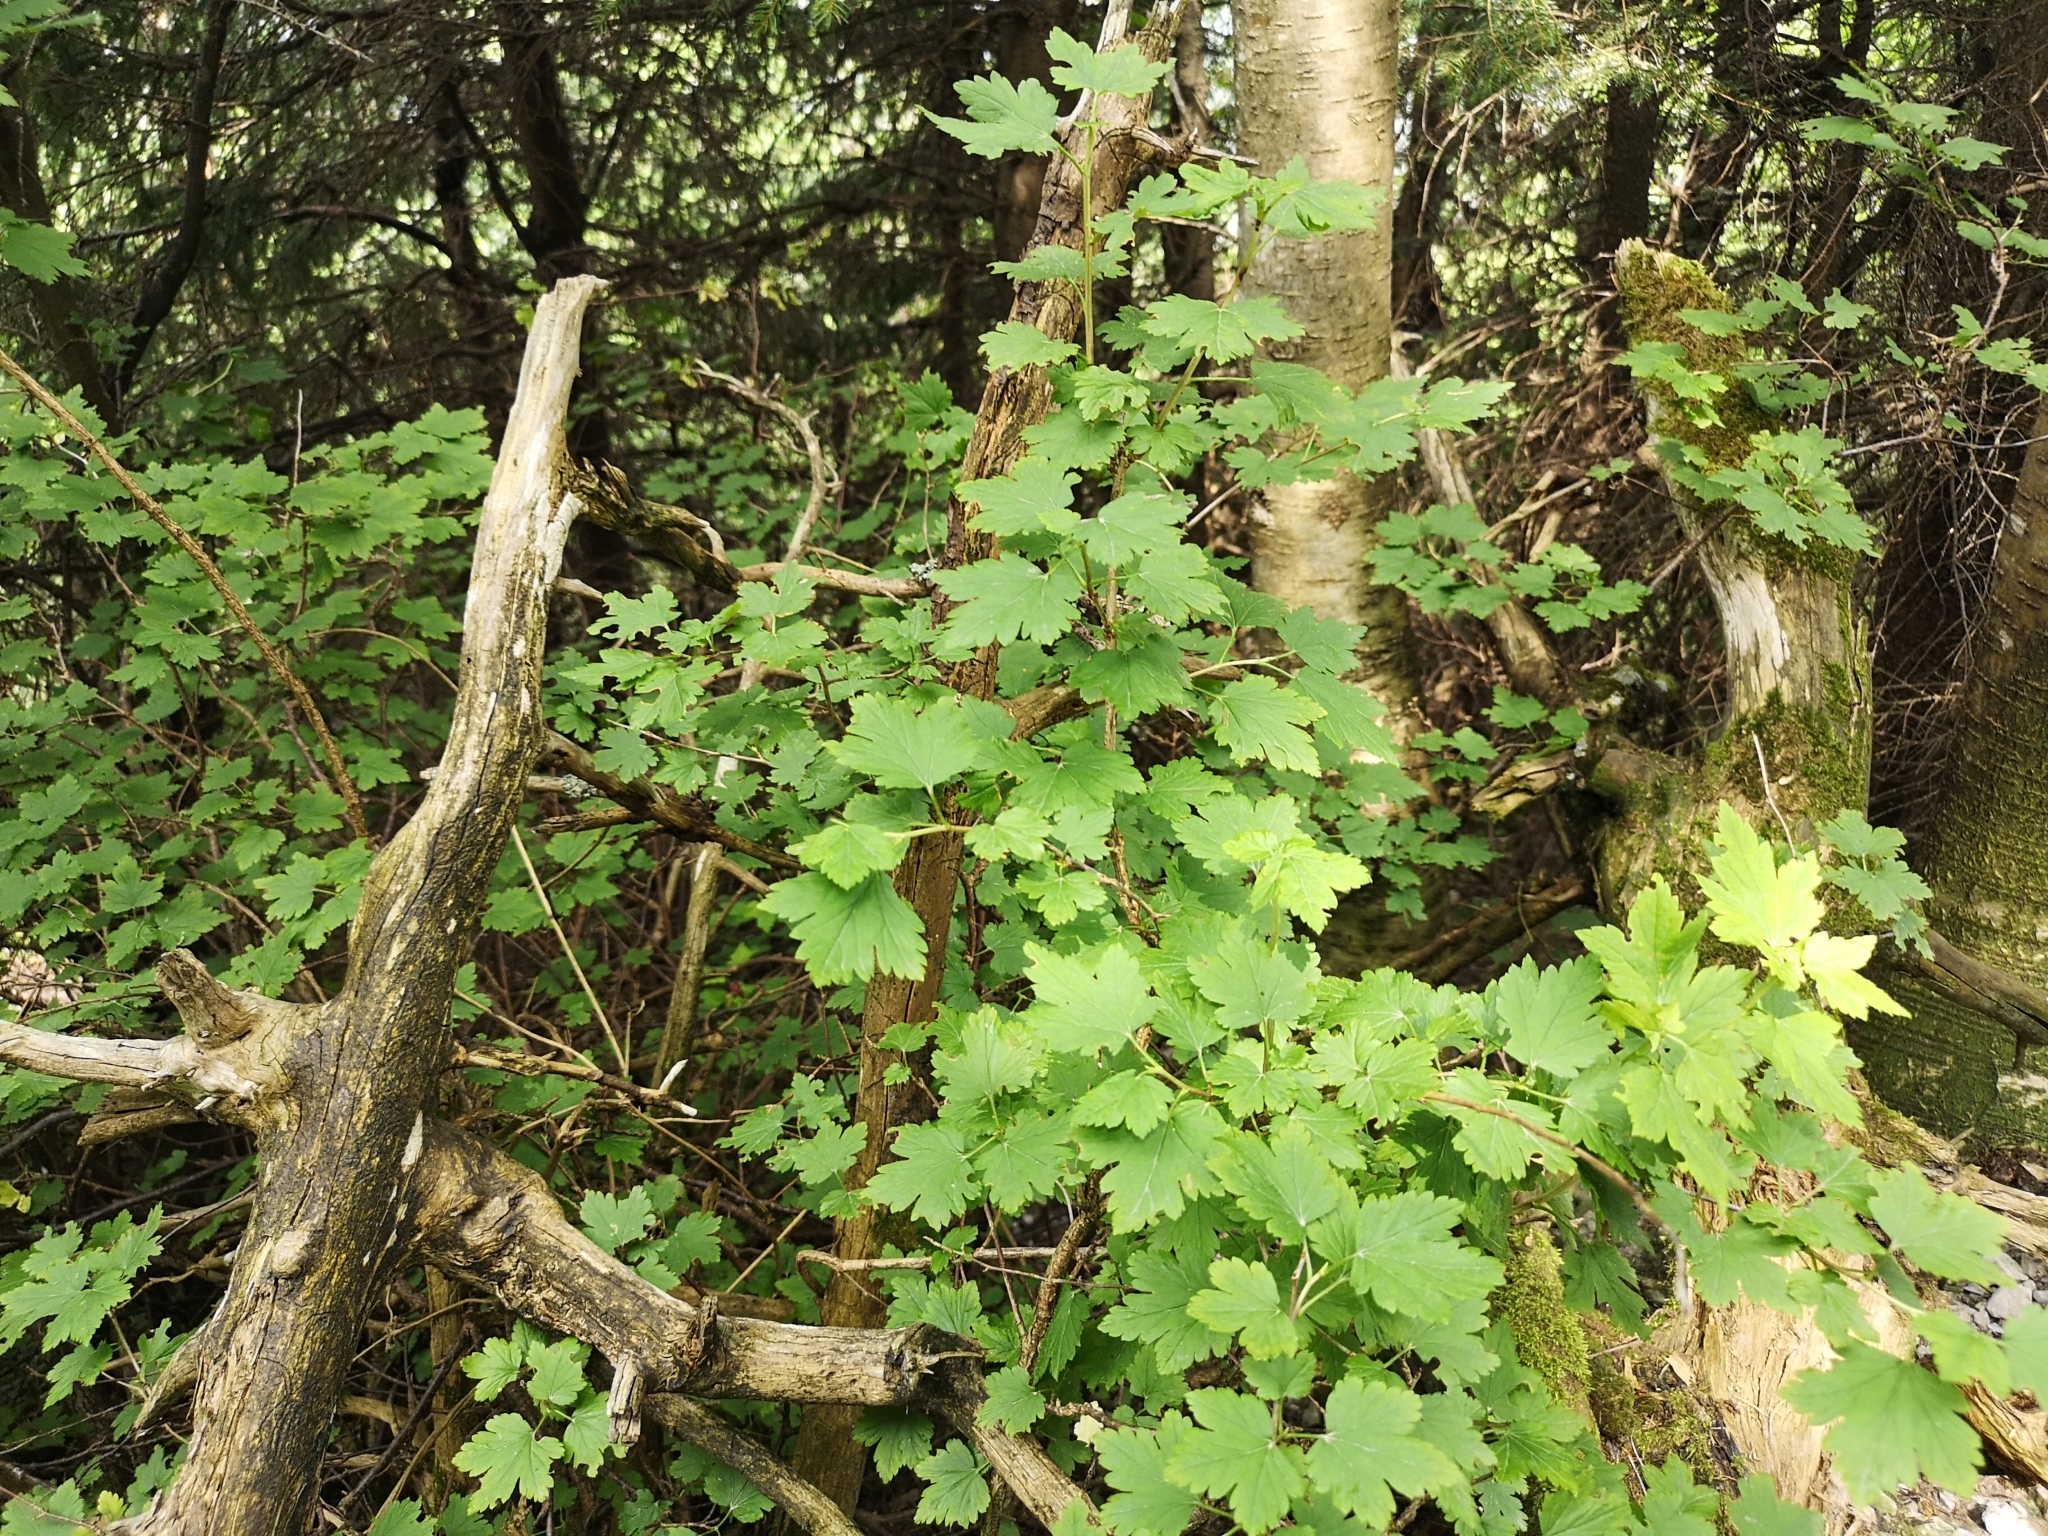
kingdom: Plantae
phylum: Tracheophyta
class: Magnoliopsida
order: Saxifragales
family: Grossulariaceae
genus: Ribes
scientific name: Ribes alpinum
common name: Alpine currant
